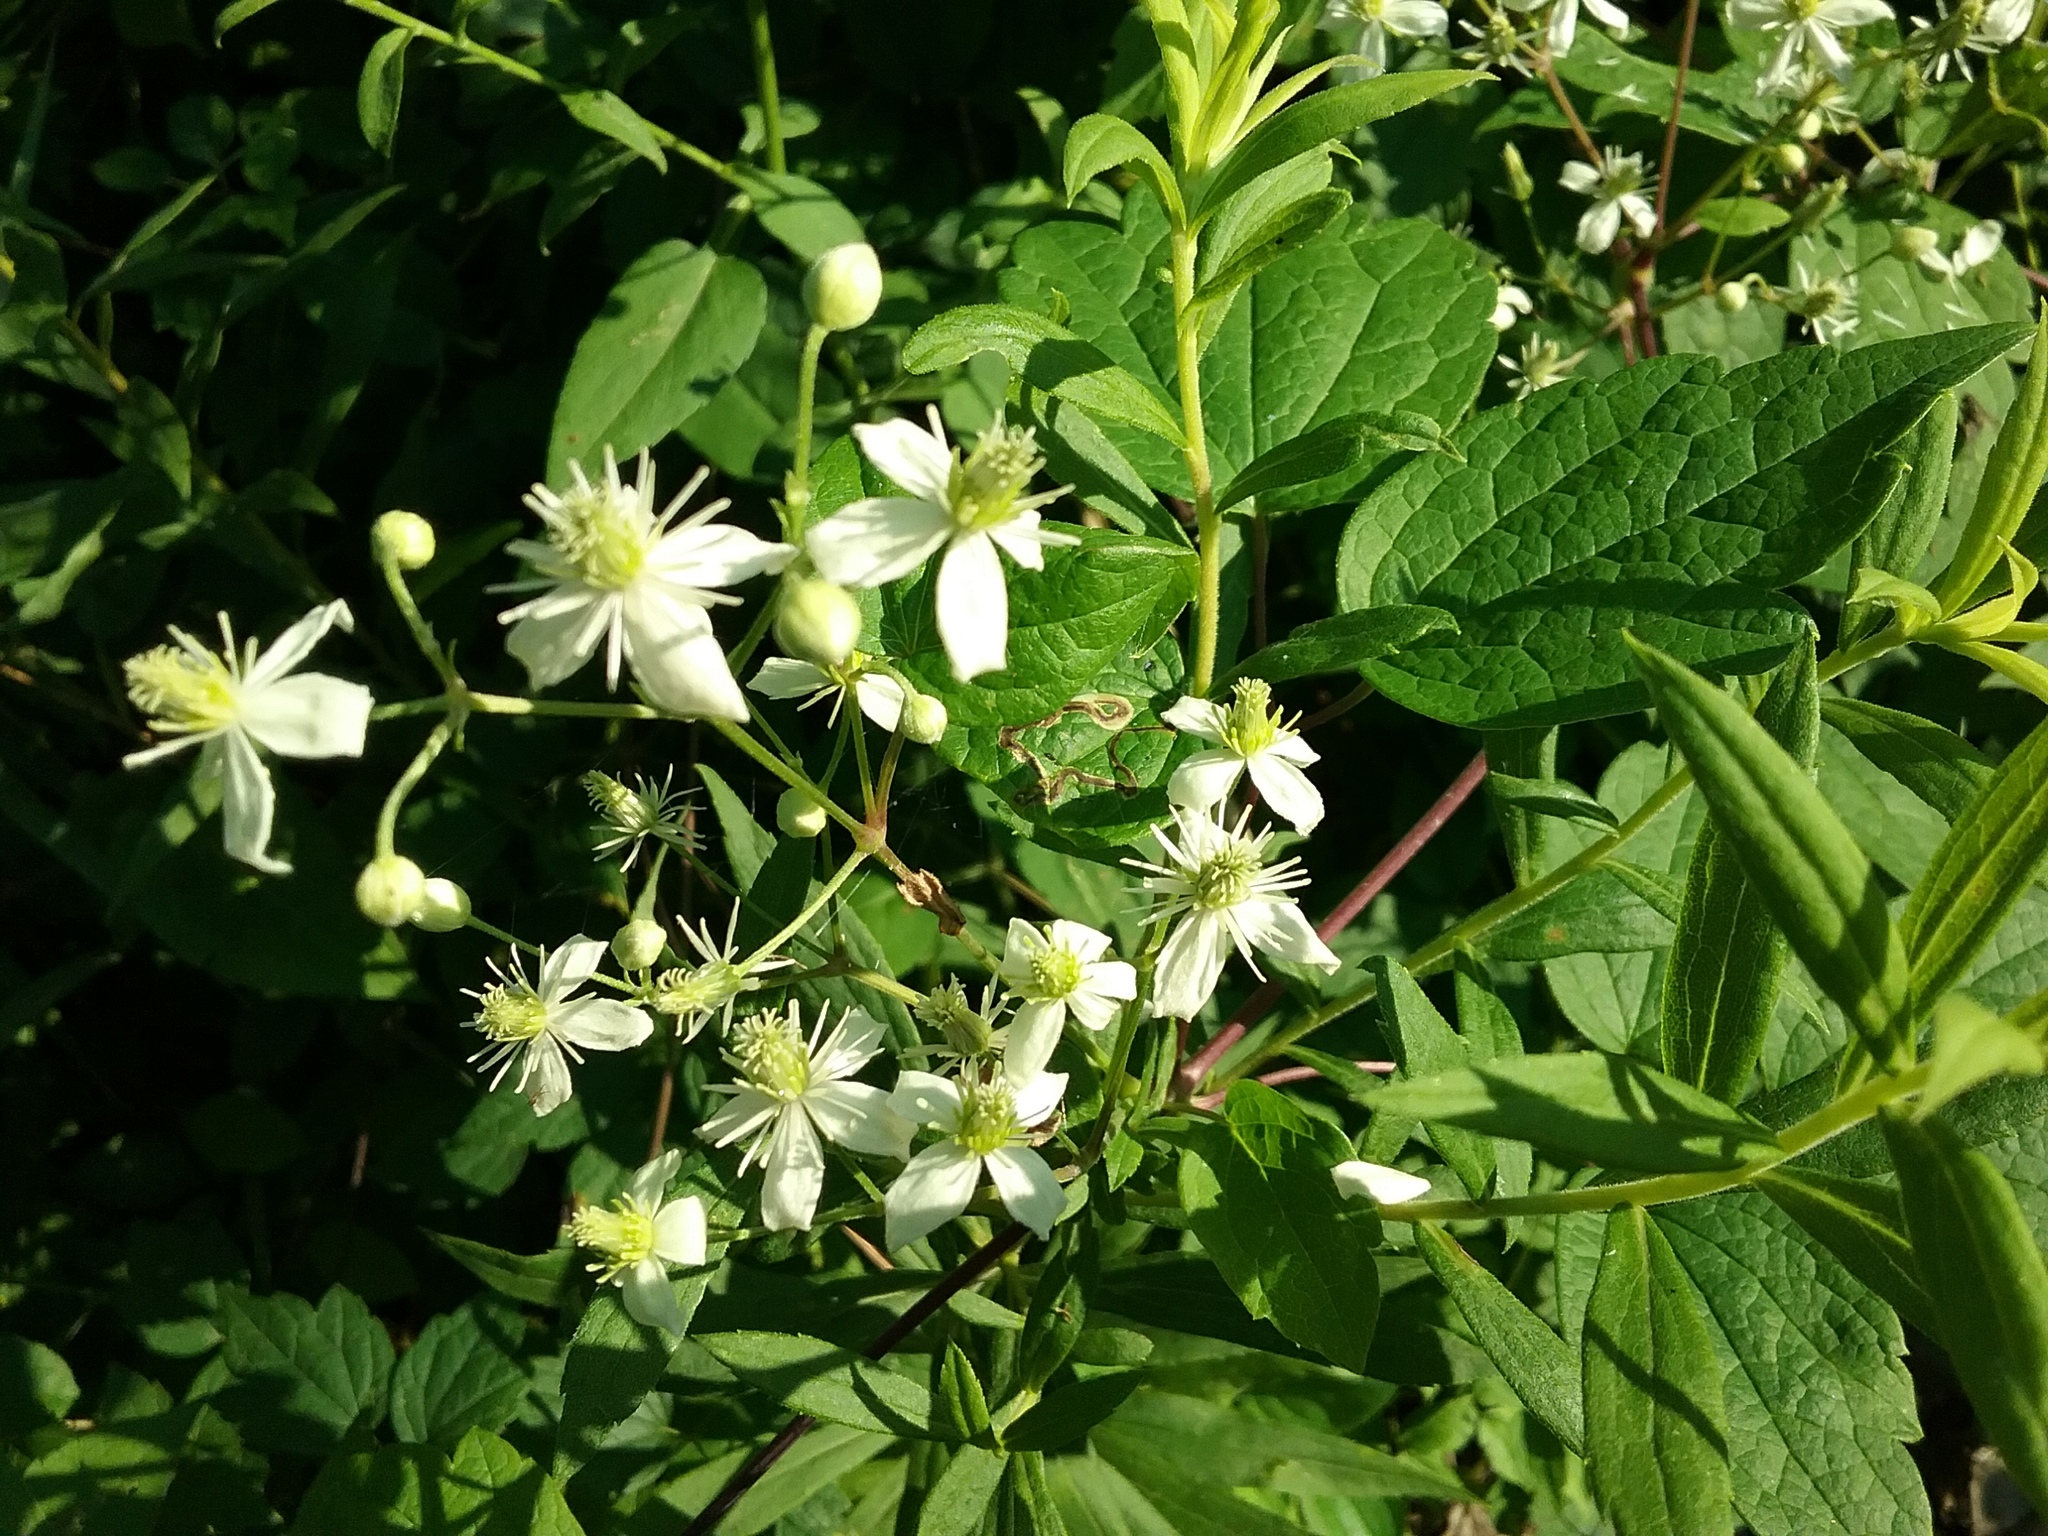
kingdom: Plantae
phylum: Tracheophyta
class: Magnoliopsida
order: Ranunculales
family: Ranunculaceae
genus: Clematis
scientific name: Clematis virginiana
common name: Virgin's-bower
